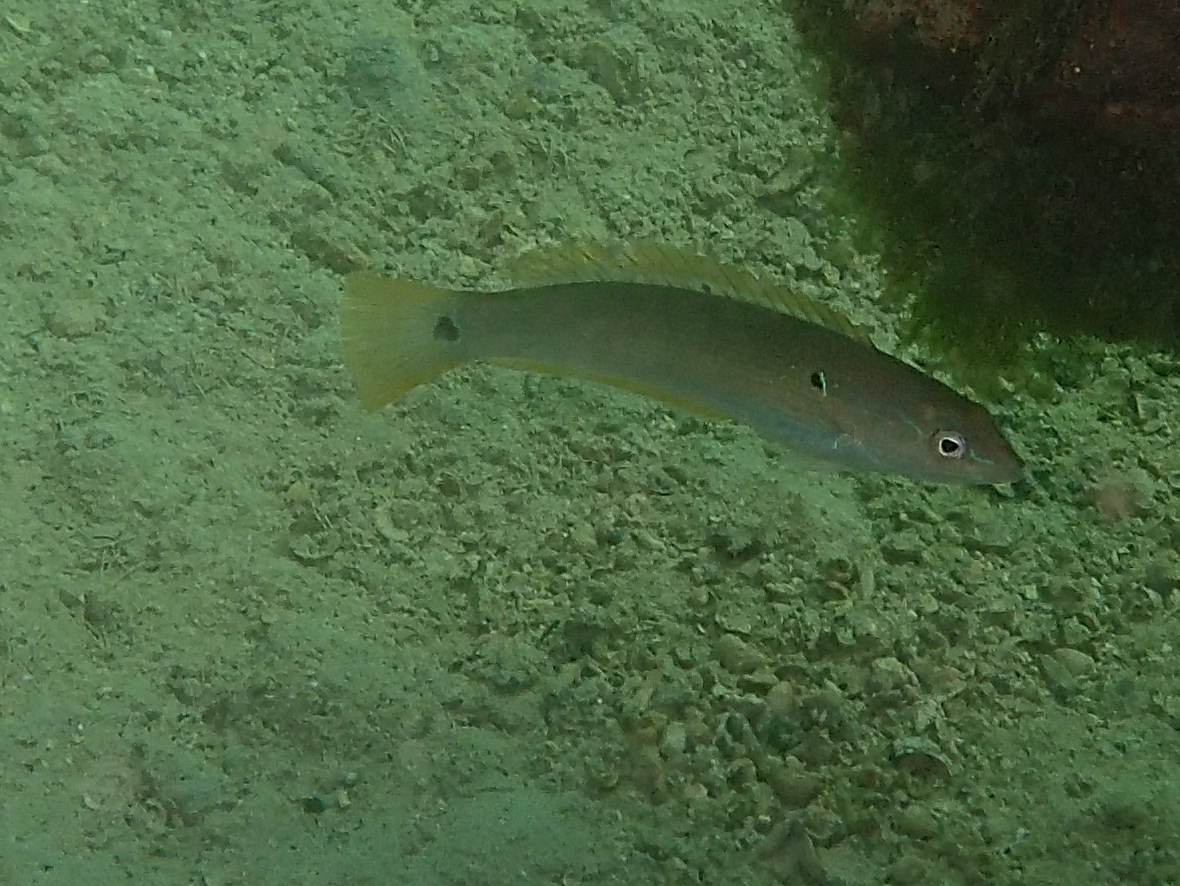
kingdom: Animalia
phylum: Chordata
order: Perciformes
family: Labridae
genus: Halichoeres
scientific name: Halichoeres dispilus
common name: Chameleon wrasse
